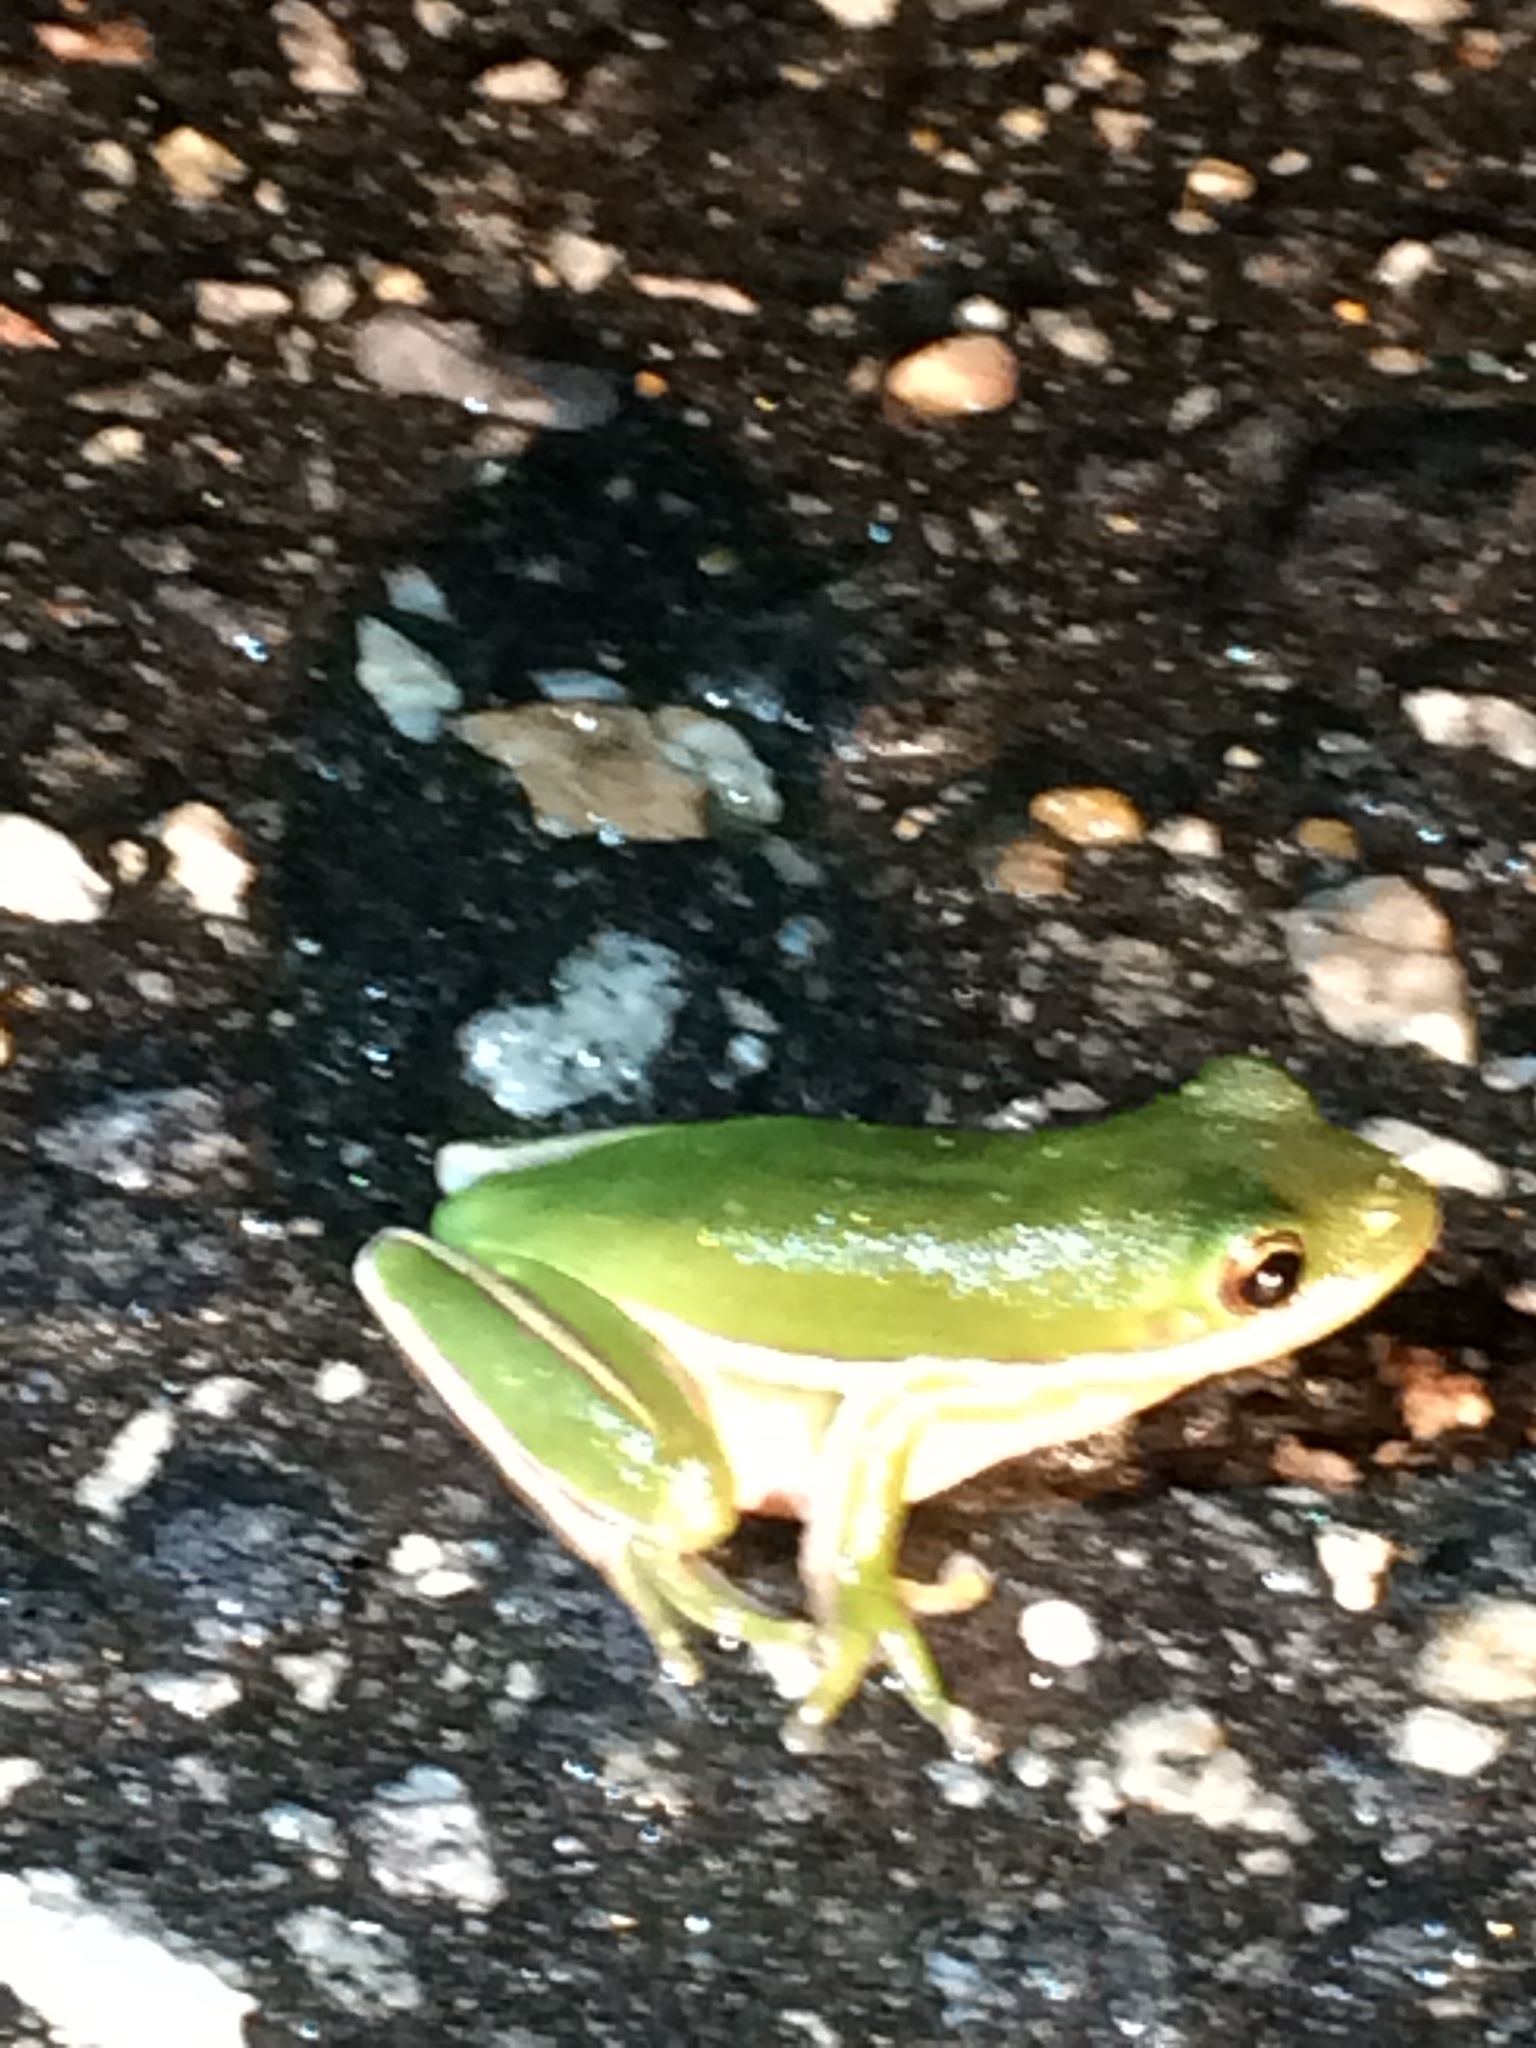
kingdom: Animalia
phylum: Chordata
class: Amphibia
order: Anura
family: Hylidae
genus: Dryophytes
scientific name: Dryophytes cinereus
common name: Green treefrog
